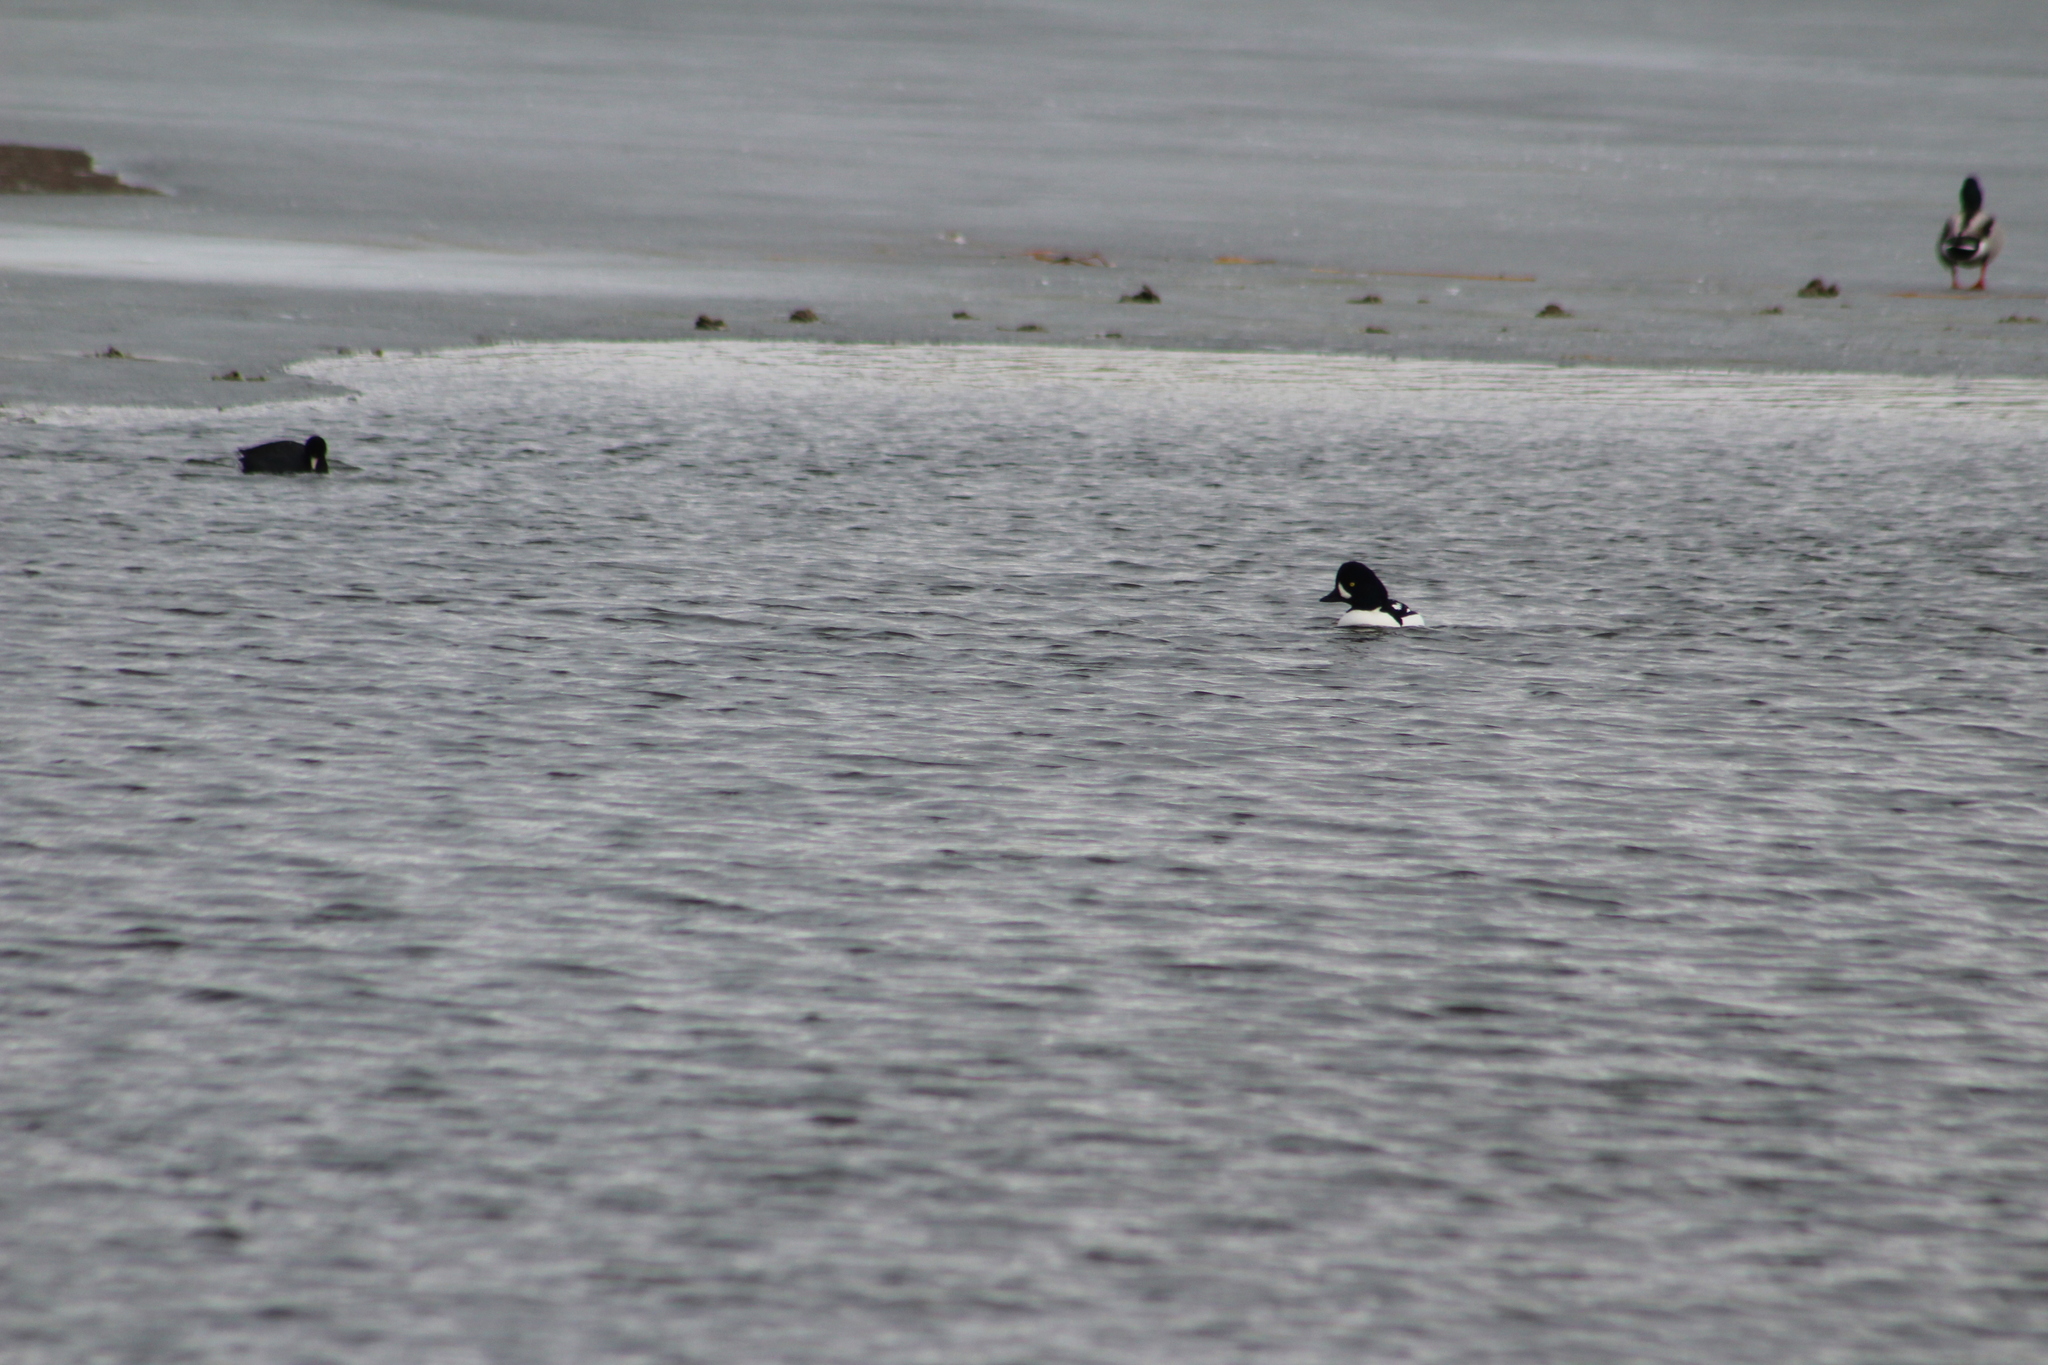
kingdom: Animalia
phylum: Chordata
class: Aves
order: Anseriformes
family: Anatidae
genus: Bucephala
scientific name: Bucephala islandica
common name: Barrow's goldeneye
